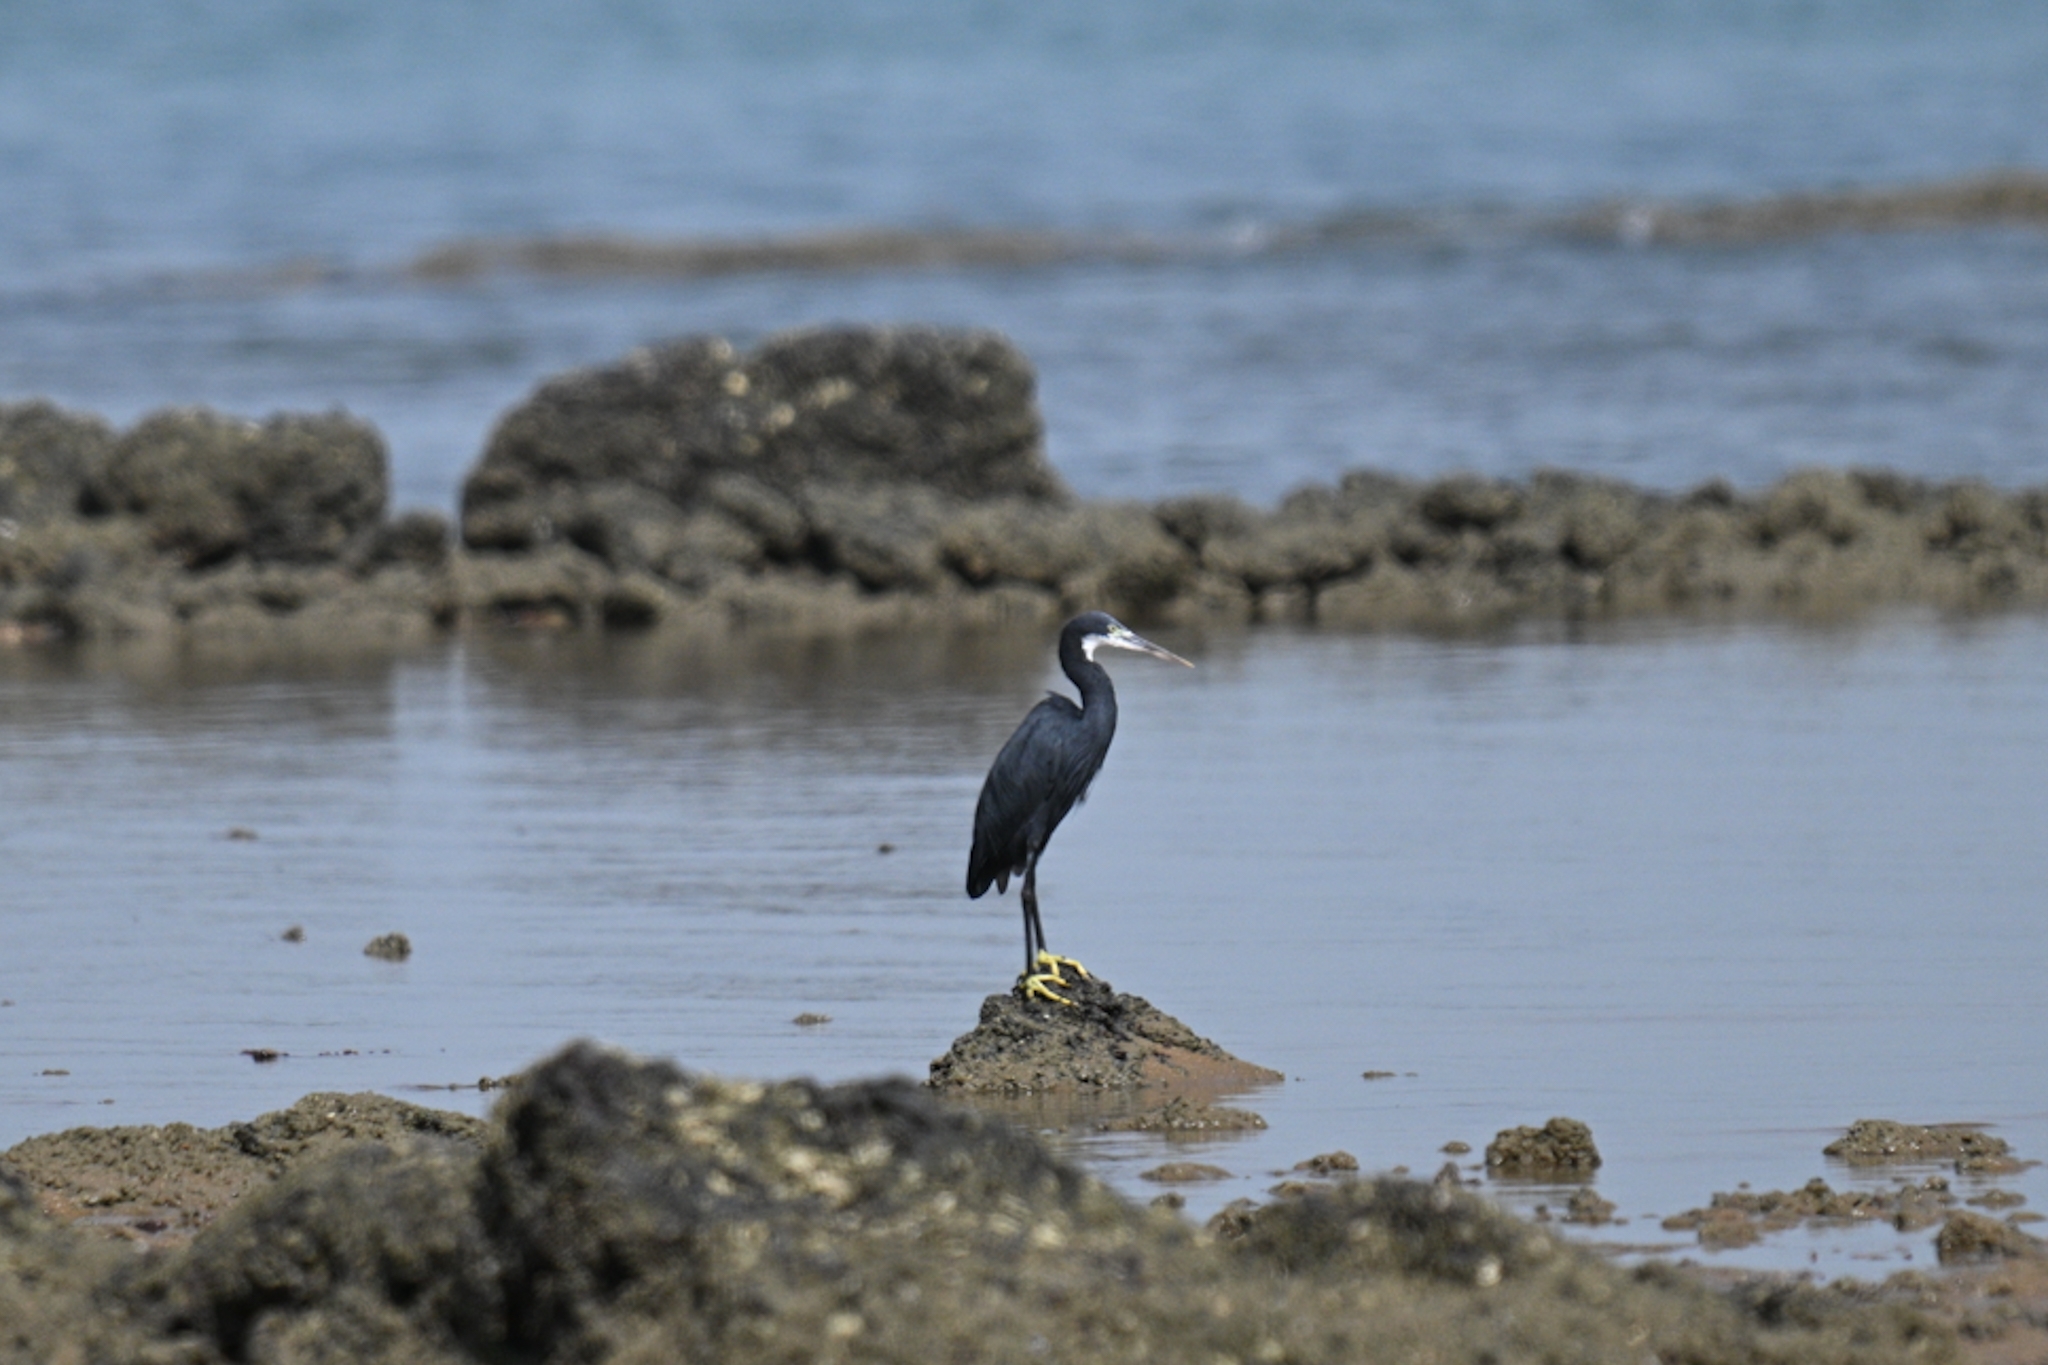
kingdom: Animalia
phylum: Chordata
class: Aves
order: Pelecaniformes
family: Ardeidae
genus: Egretta
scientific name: Egretta gularis
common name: Western reef-heron
